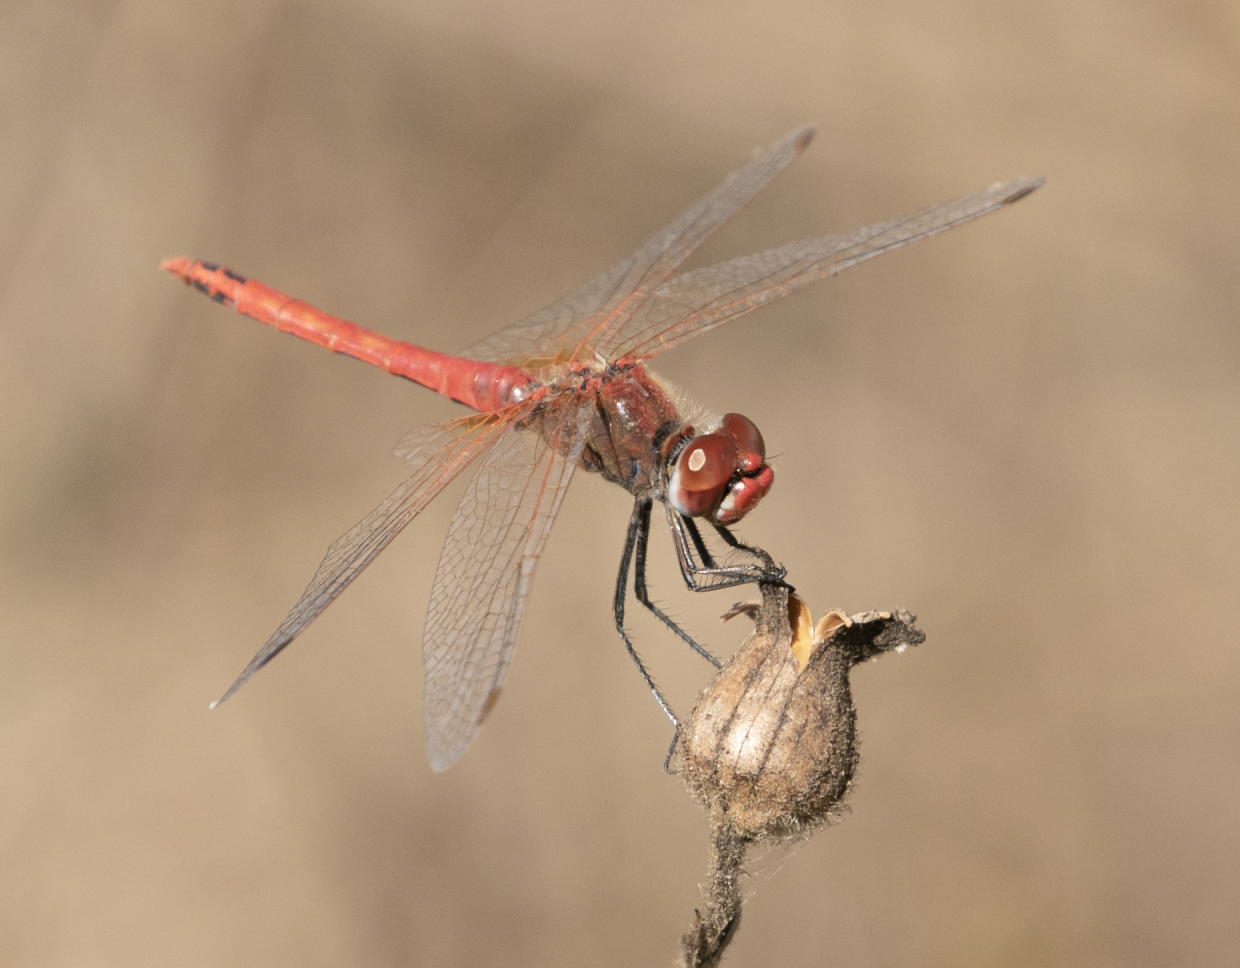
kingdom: Animalia
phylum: Arthropoda
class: Insecta
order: Odonata
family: Libellulidae
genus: Sympetrum
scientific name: Sympetrum fonscolombii
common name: Red-veined darter
